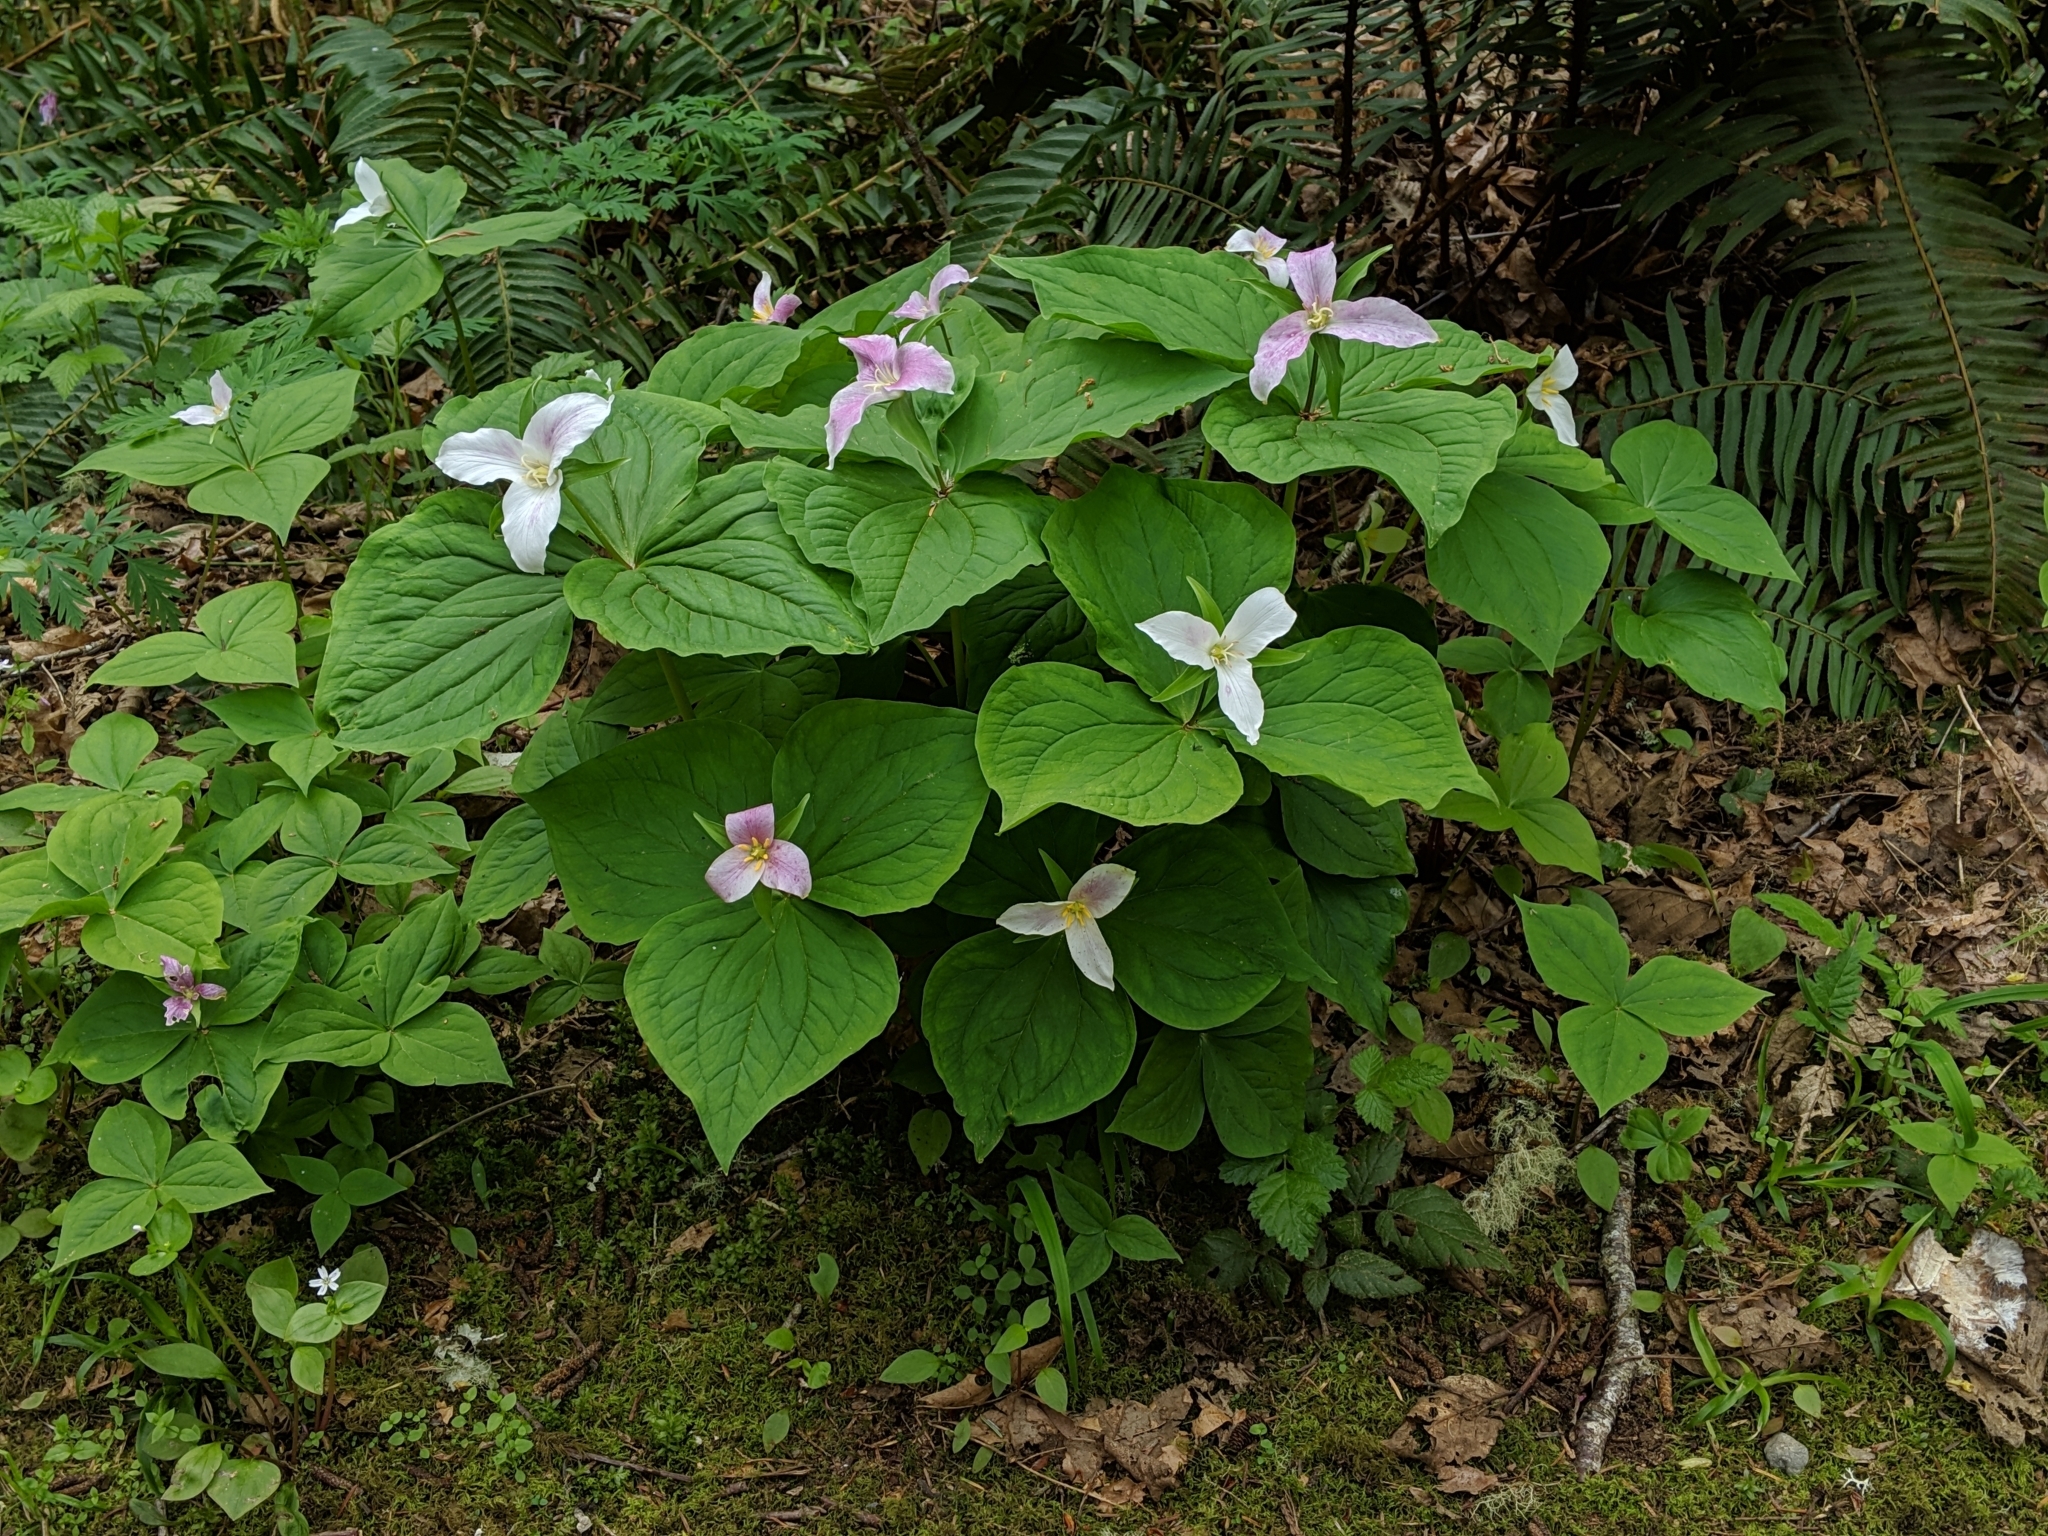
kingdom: Plantae
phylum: Tracheophyta
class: Liliopsida
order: Liliales
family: Melanthiaceae
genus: Trillium
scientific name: Trillium ovatum
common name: Pacific trillium
